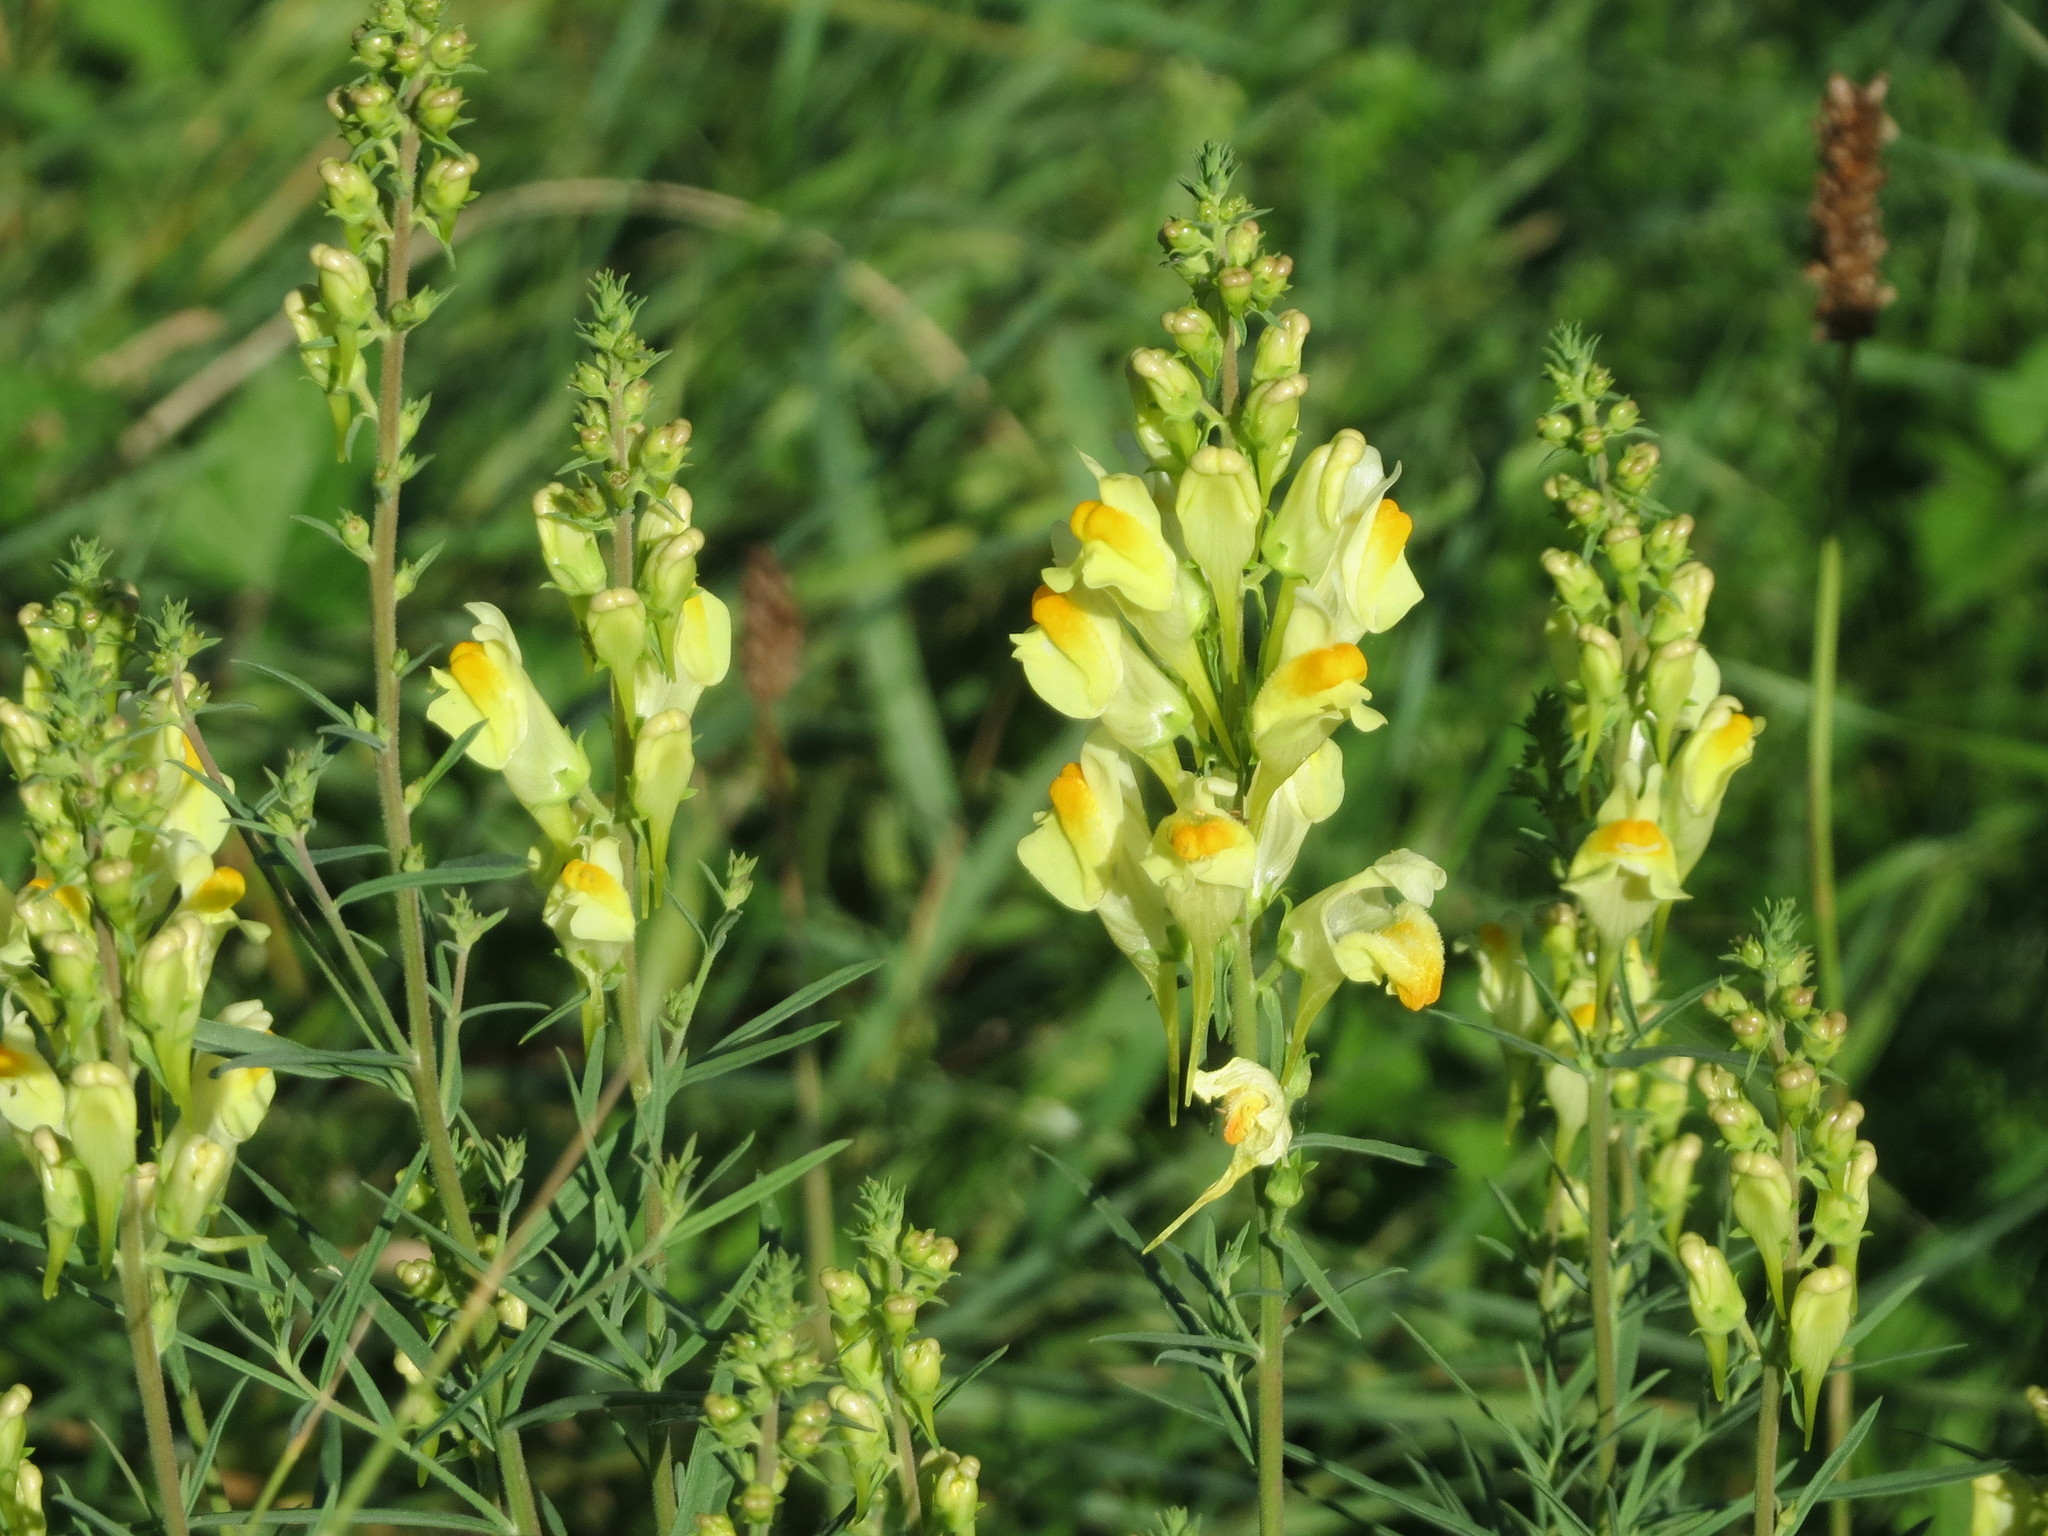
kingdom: Plantae
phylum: Tracheophyta
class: Magnoliopsida
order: Lamiales
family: Plantaginaceae
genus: Linaria
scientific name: Linaria vulgaris
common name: Butter and eggs
